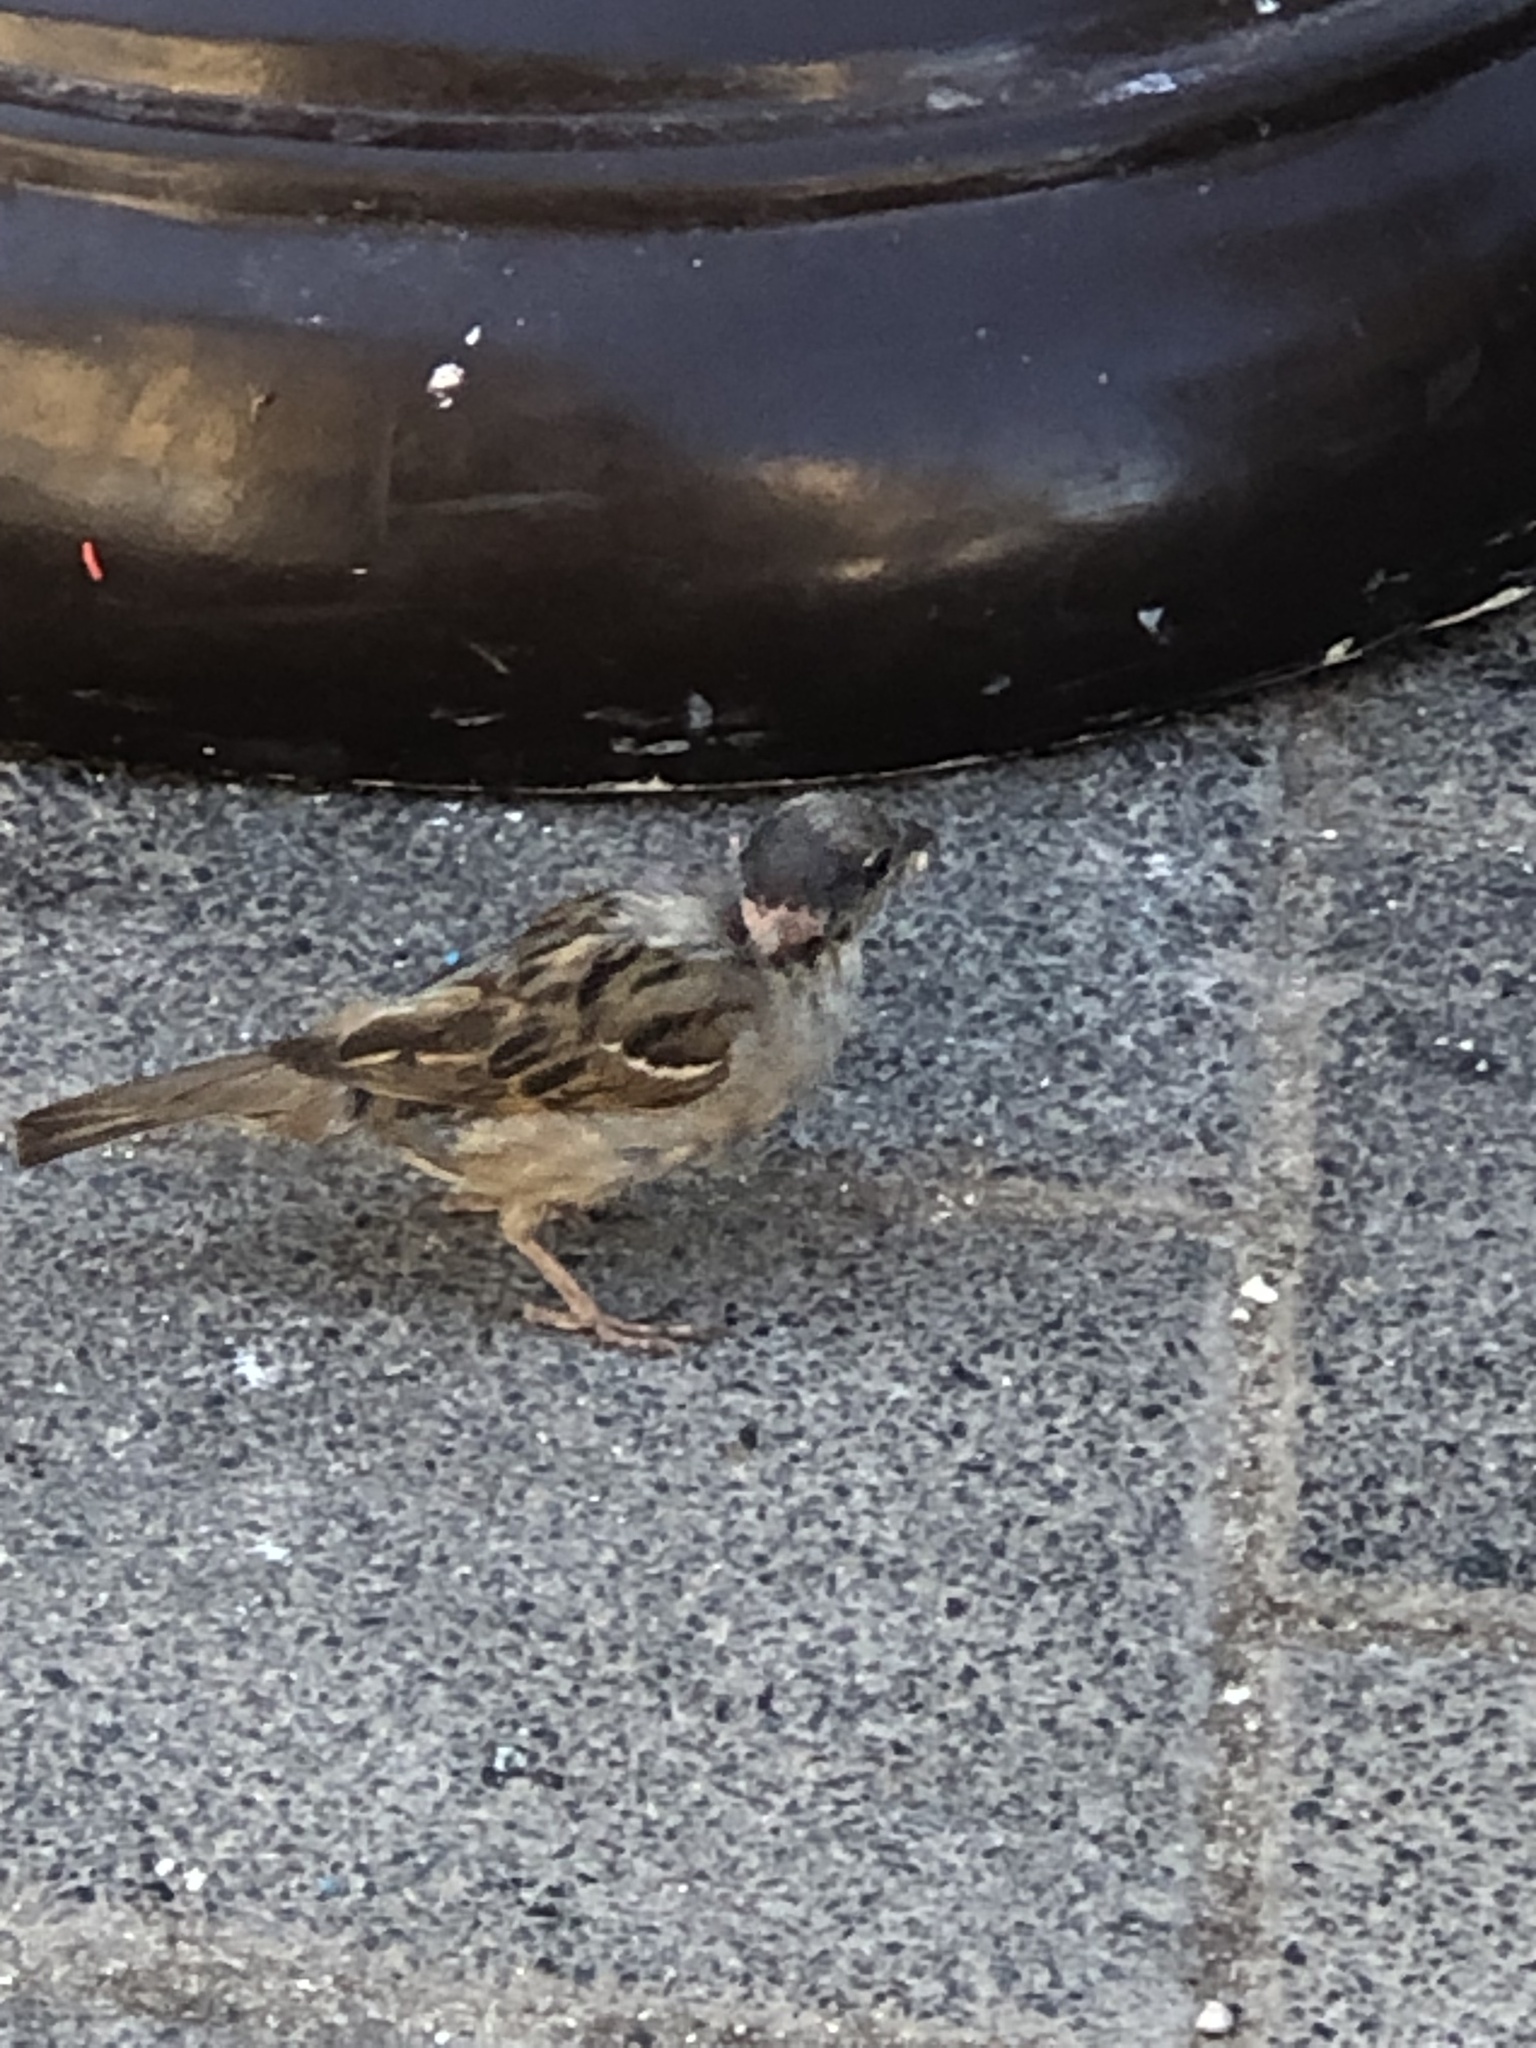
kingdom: Animalia
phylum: Chordata
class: Aves
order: Passeriformes
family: Passeridae
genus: Passer
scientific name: Passer domesticus
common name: House sparrow
